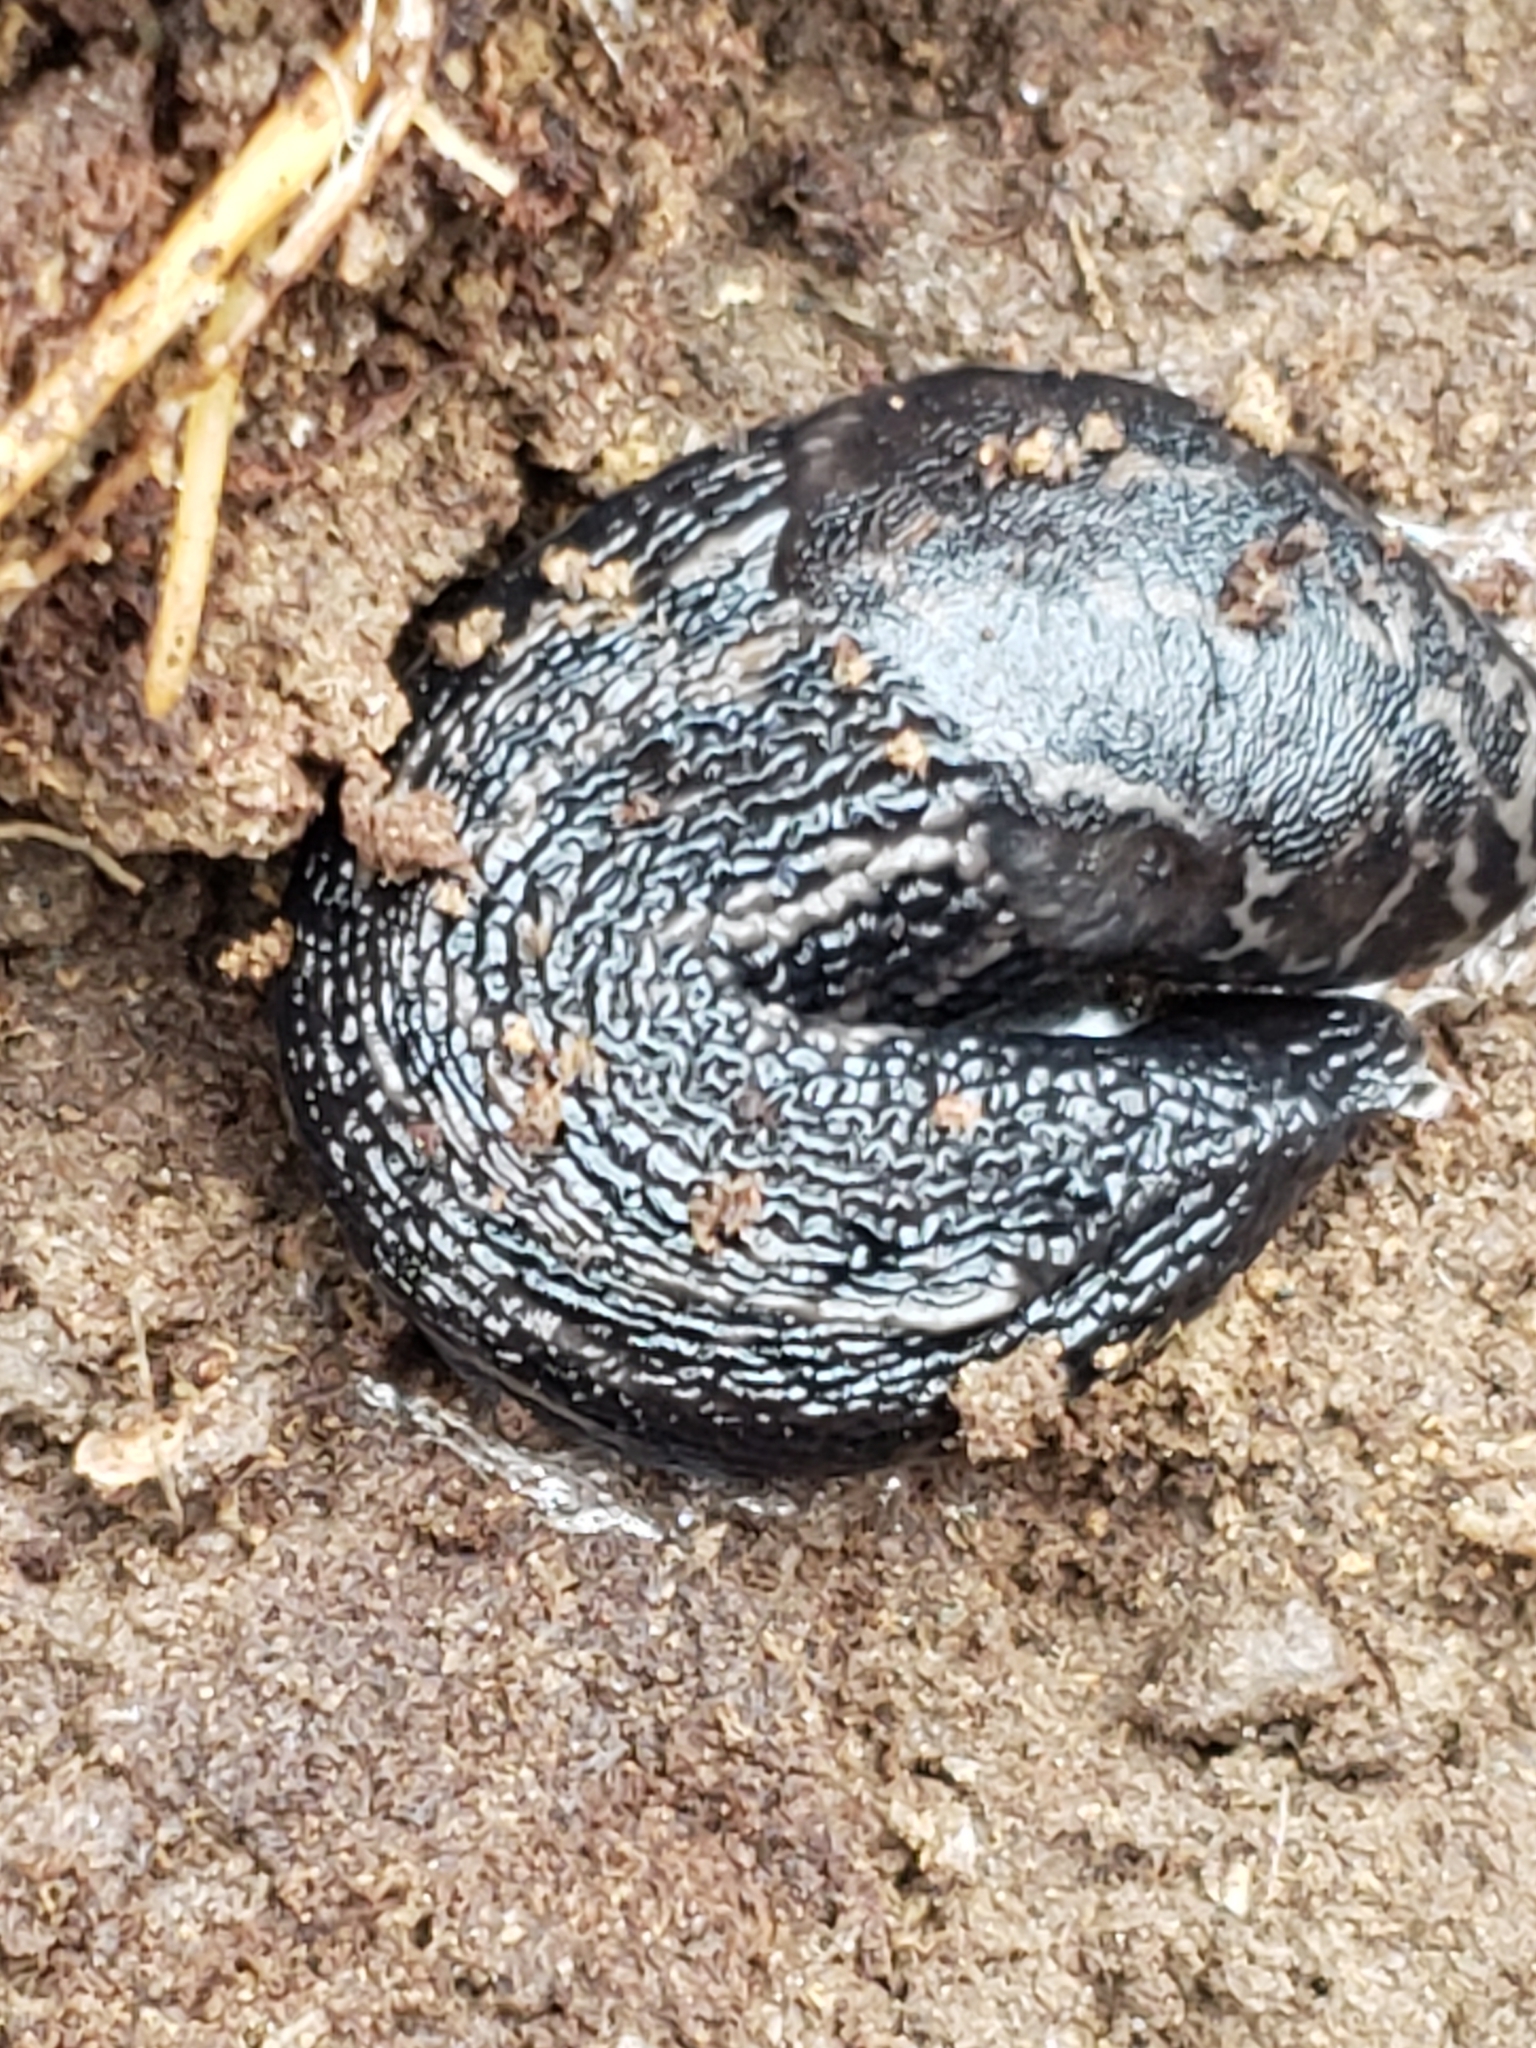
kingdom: Animalia
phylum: Mollusca
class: Gastropoda
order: Stylommatophora
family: Limacidae
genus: Limax
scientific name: Limax maximus
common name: Great grey slug
